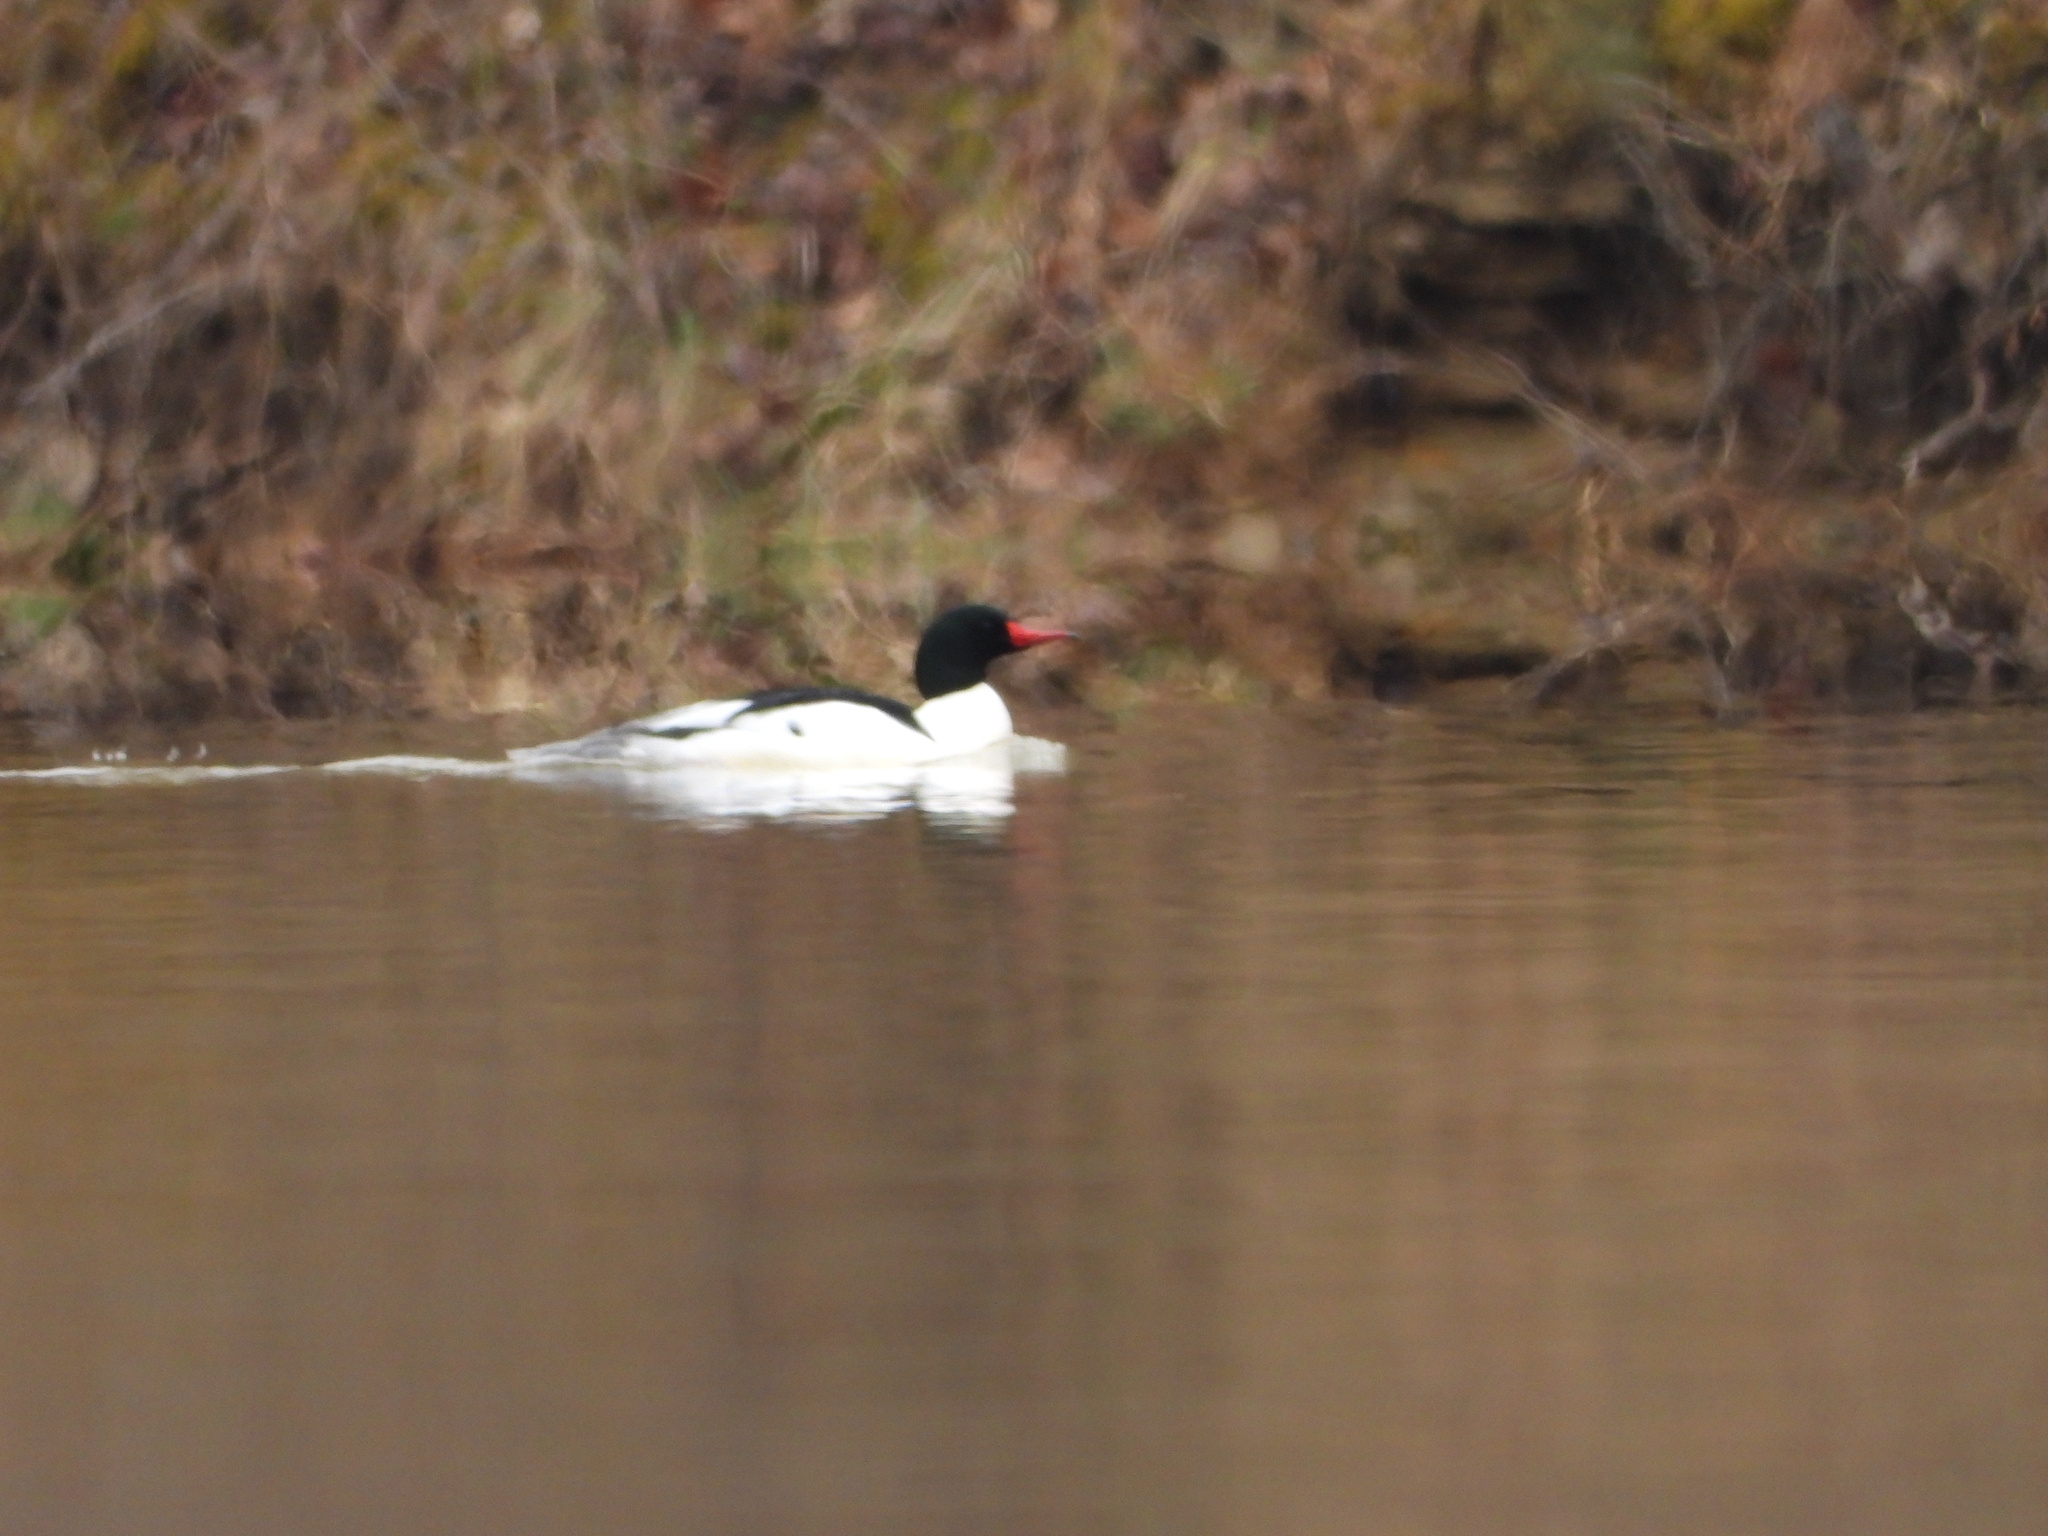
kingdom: Animalia
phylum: Chordata
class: Aves
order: Anseriformes
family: Anatidae
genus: Mergus
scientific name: Mergus merganser
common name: Common merganser
